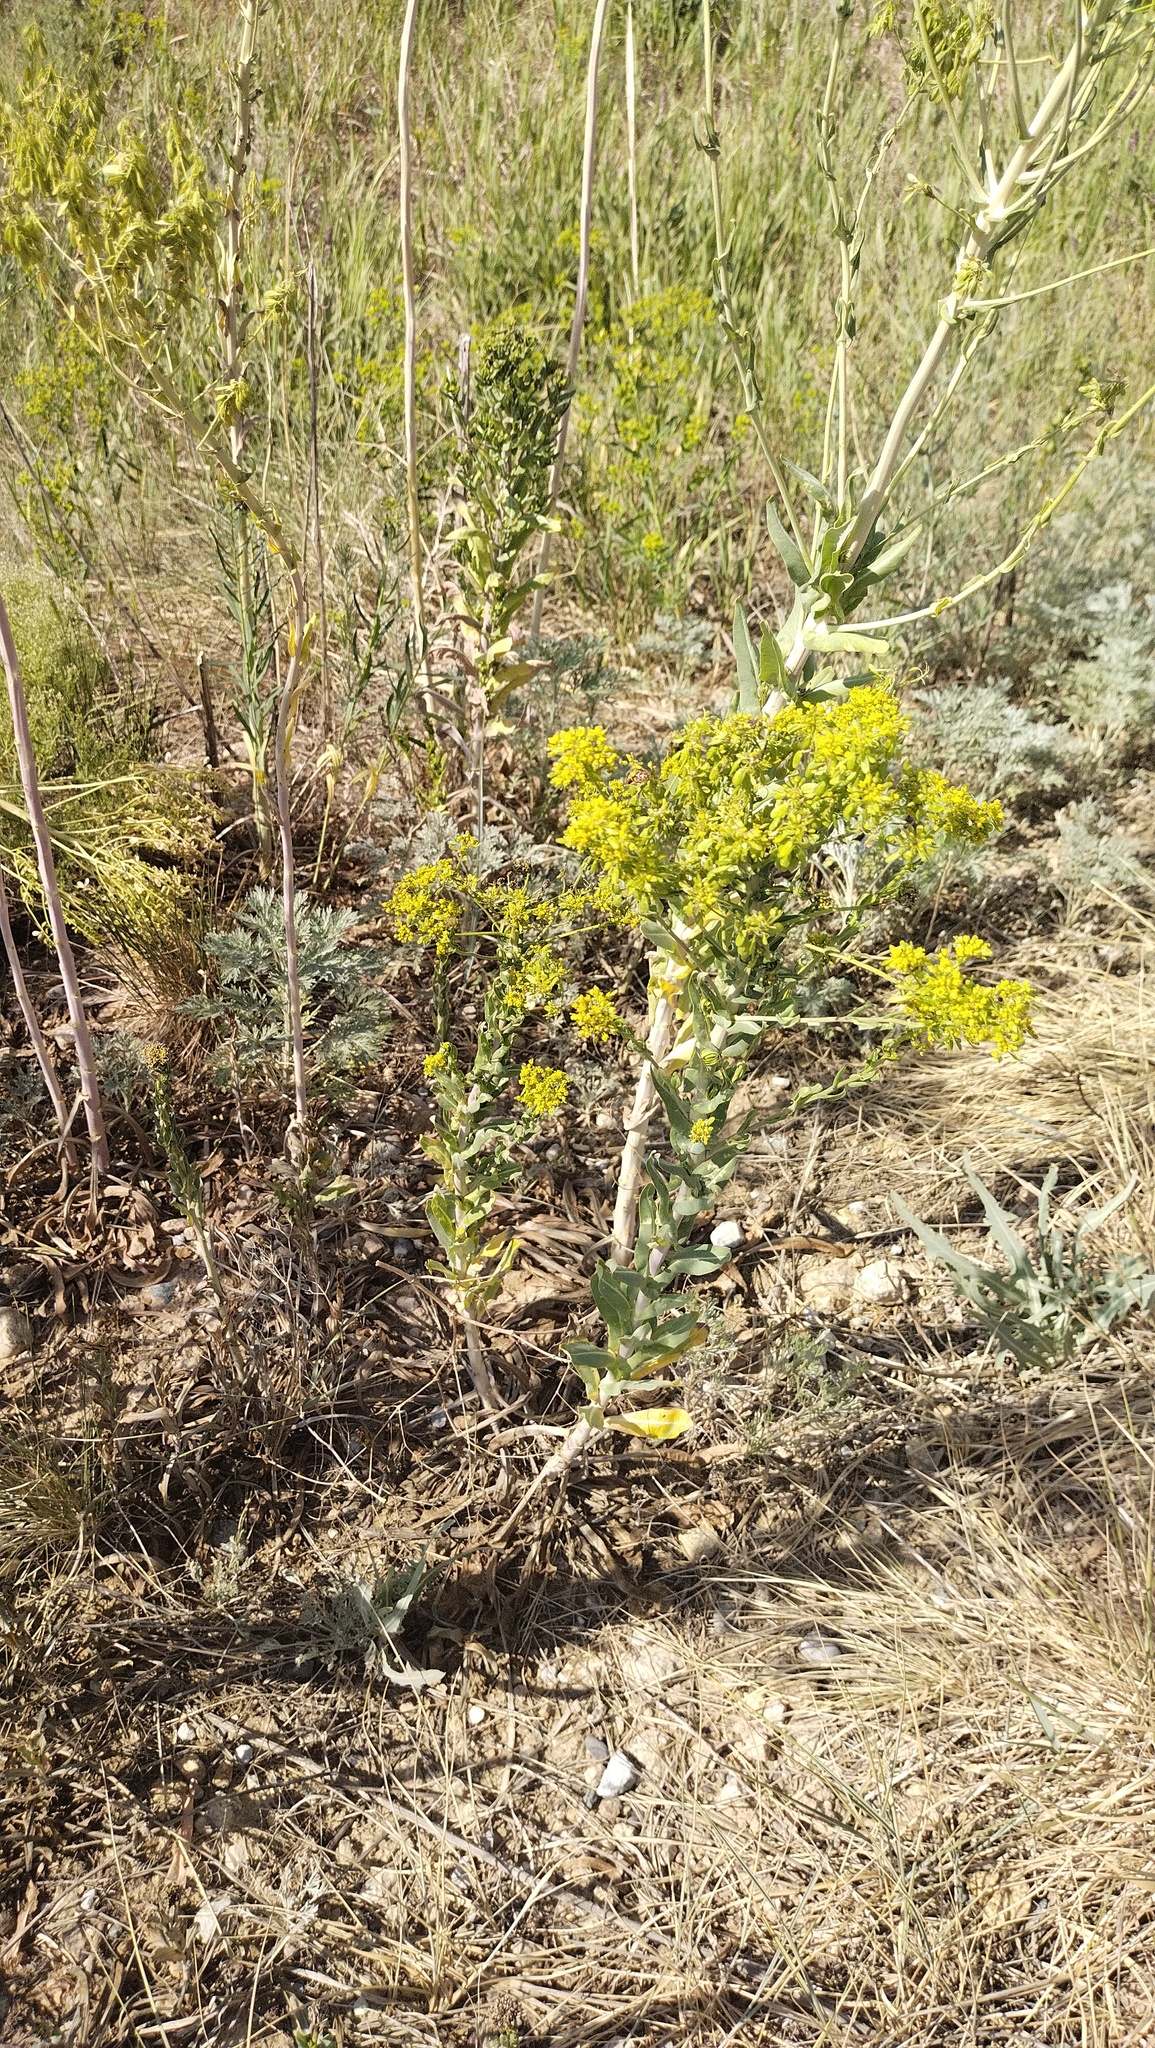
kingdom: Plantae
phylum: Tracheophyta
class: Magnoliopsida
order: Brassicales
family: Brassicaceae
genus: Isatis
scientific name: Isatis costata
